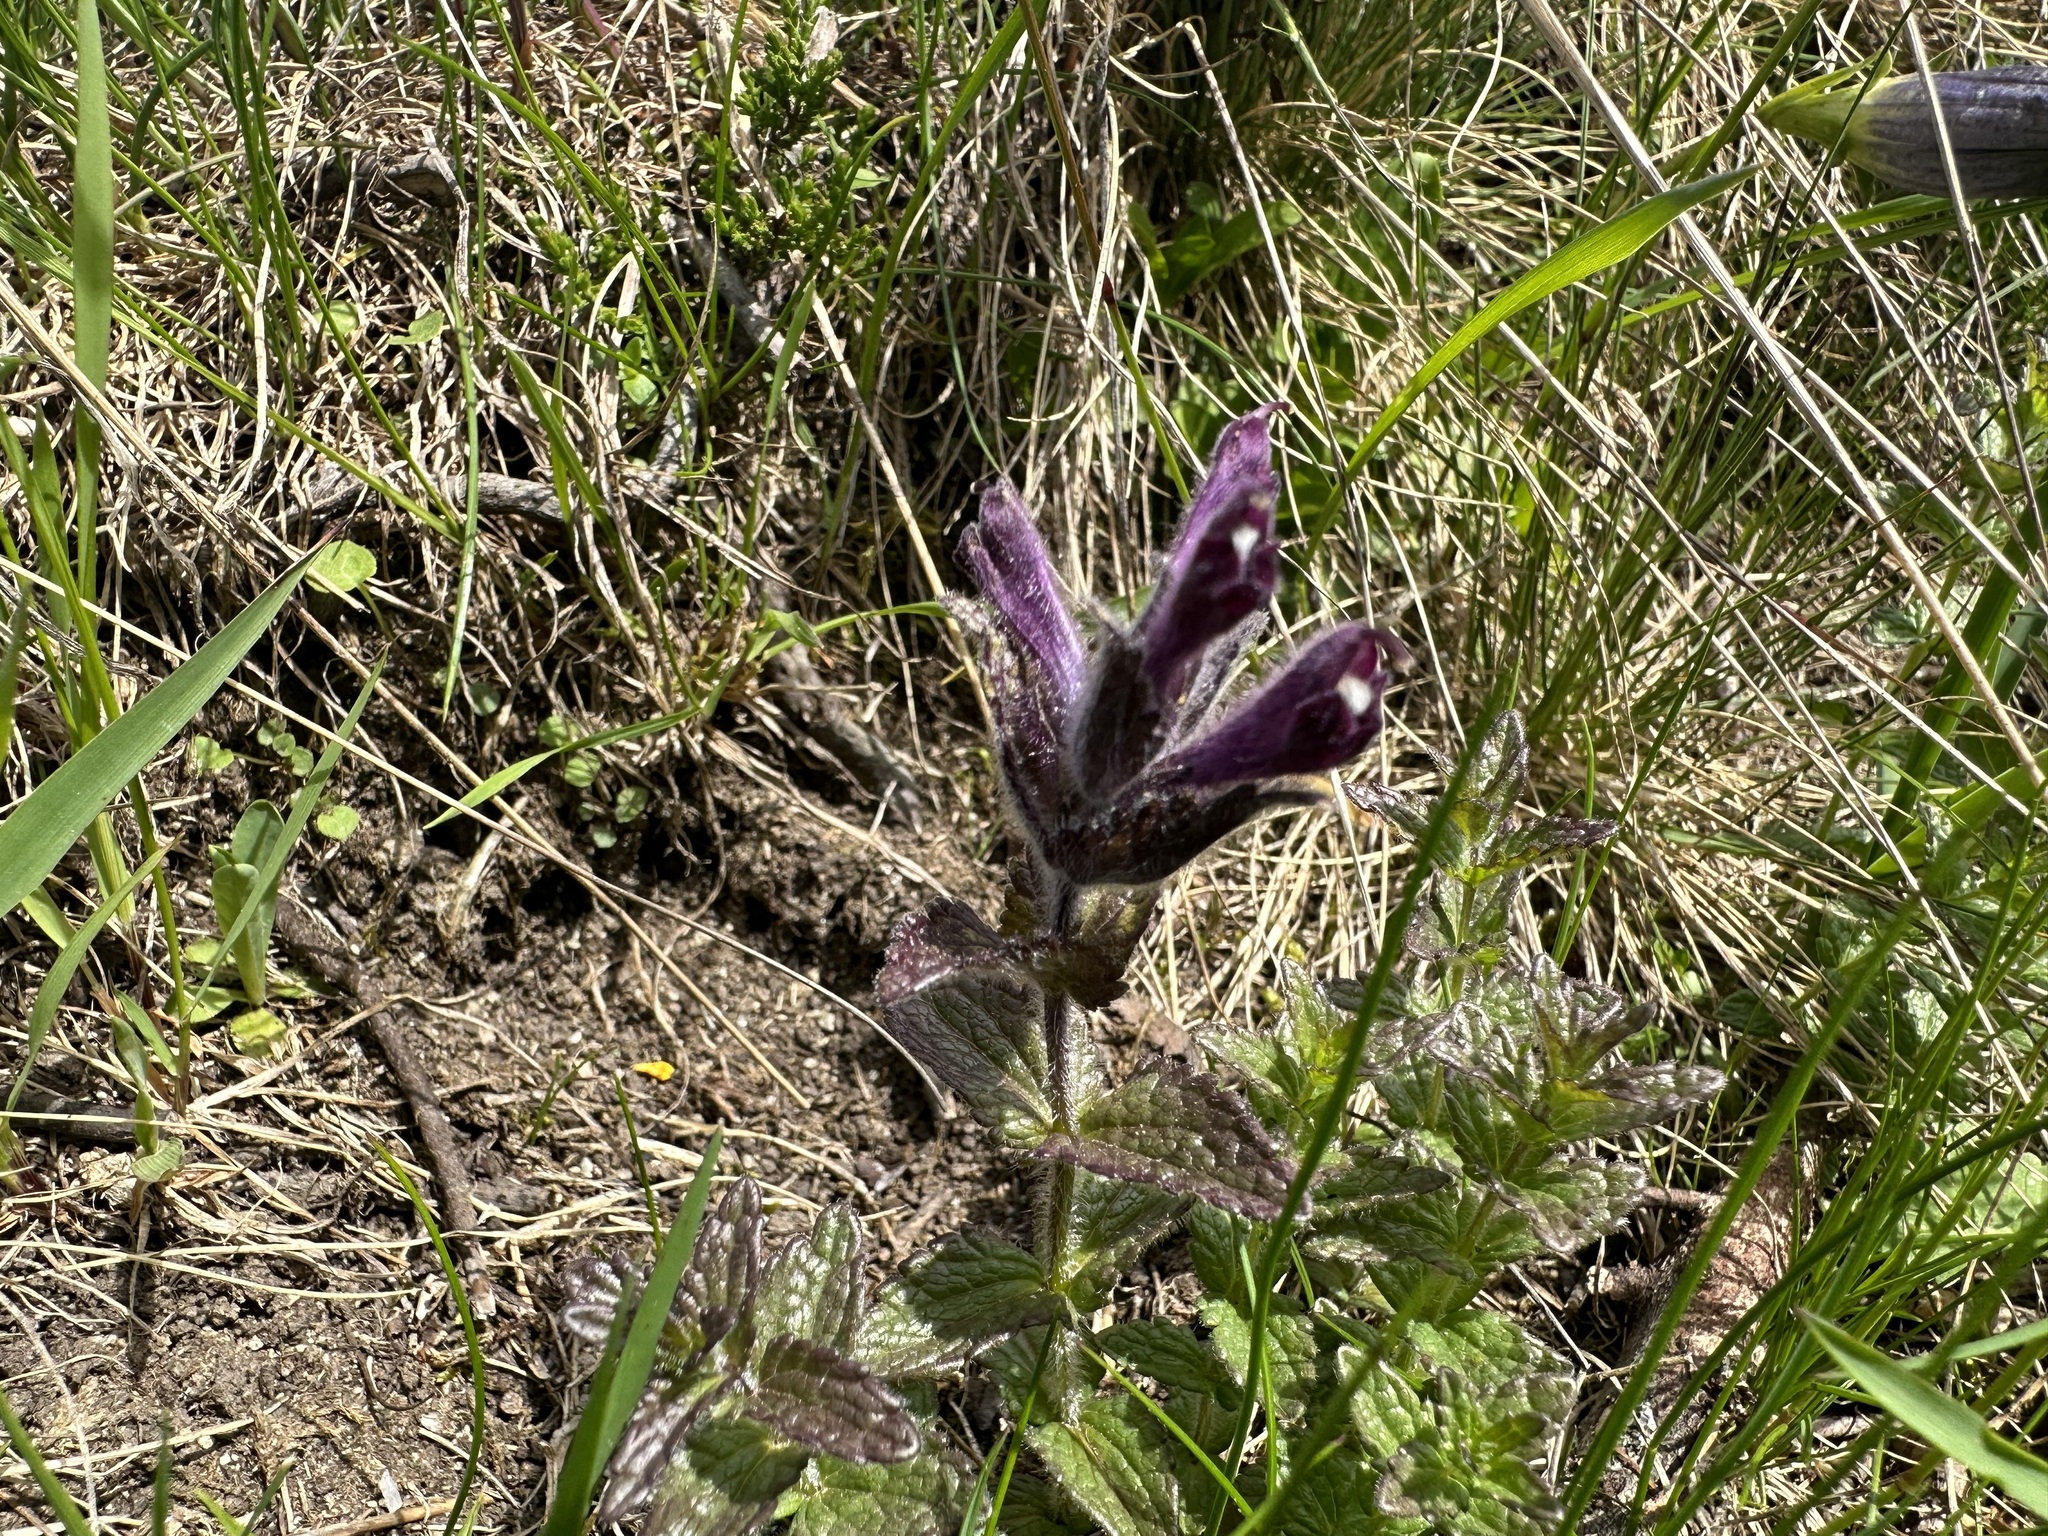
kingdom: Plantae
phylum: Tracheophyta
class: Magnoliopsida
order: Lamiales
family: Orobanchaceae
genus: Bartsia
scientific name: Bartsia alpina
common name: Alpine bartsia
